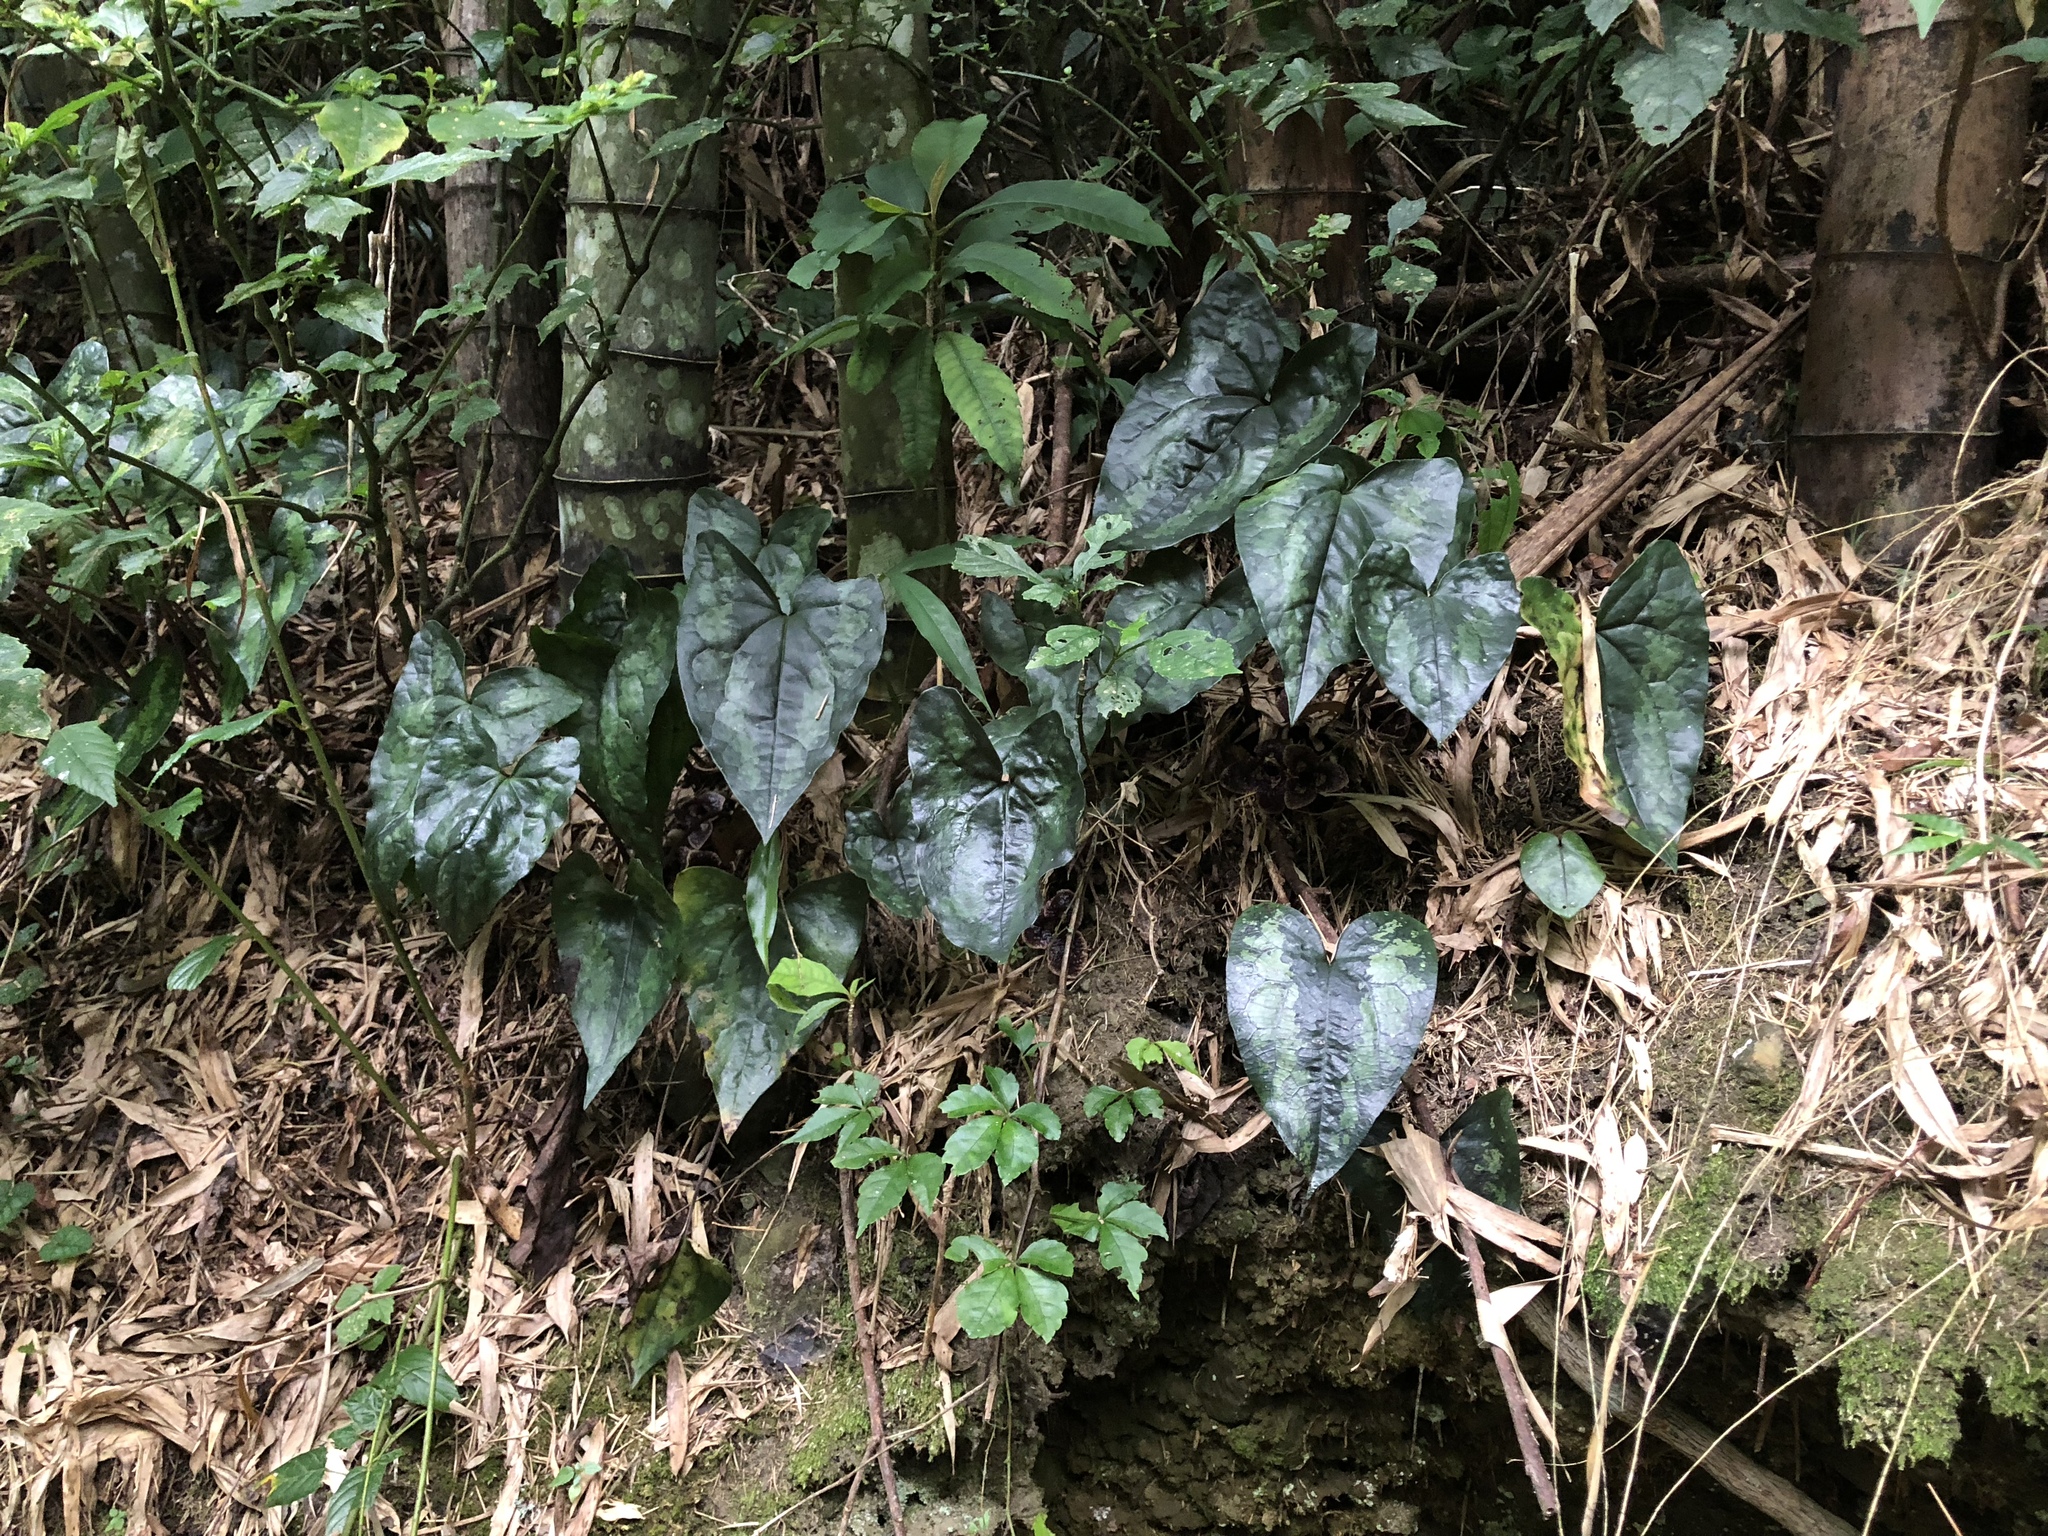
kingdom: Plantae
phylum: Tracheophyta
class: Magnoliopsida
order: Piperales
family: Aristolochiaceae
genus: Asarum
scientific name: Asarum hypogynum
